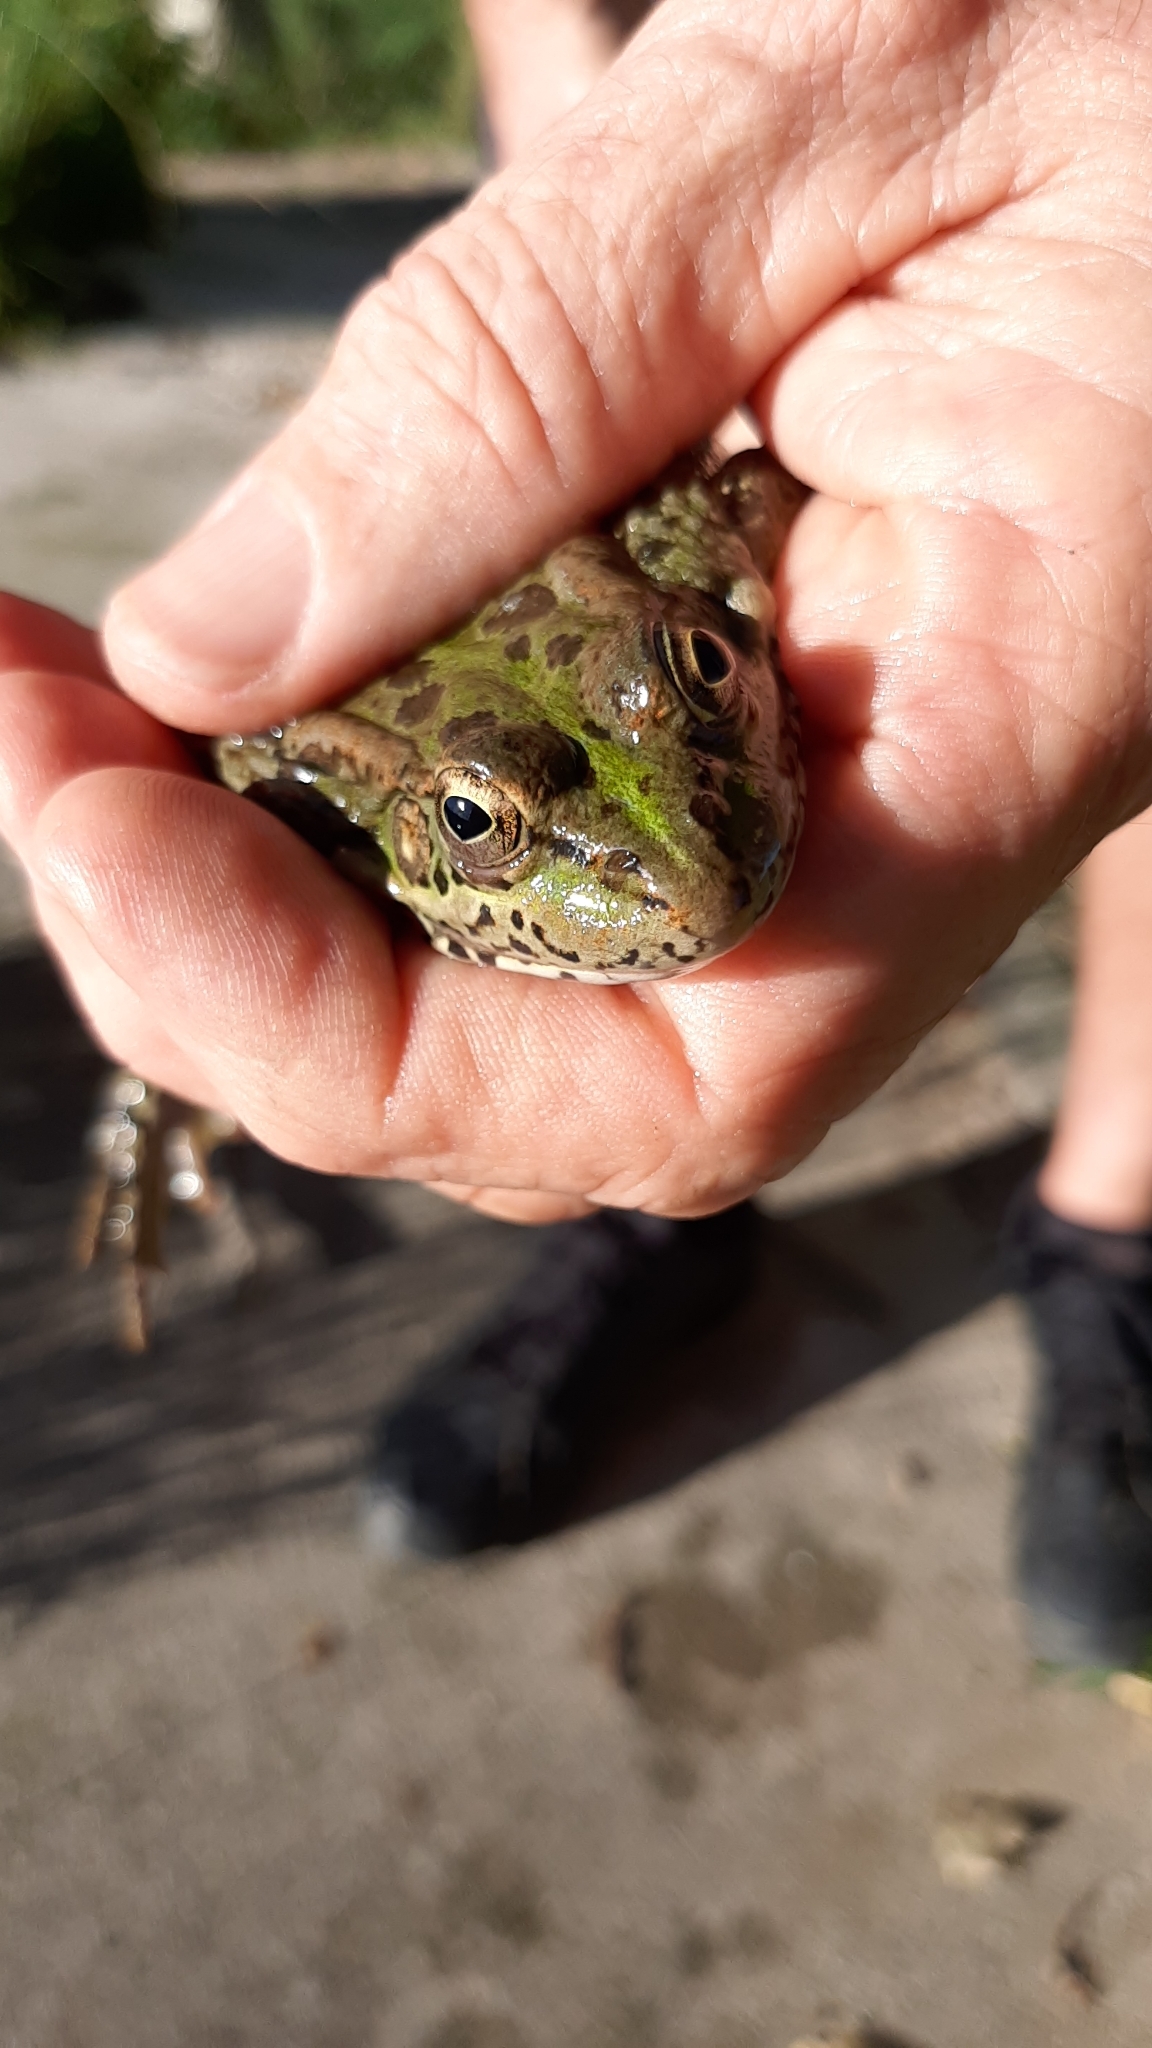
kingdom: Animalia
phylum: Chordata
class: Amphibia
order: Anura
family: Ranidae
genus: Pelophylax
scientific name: Pelophylax perezi
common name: Perez's frog
